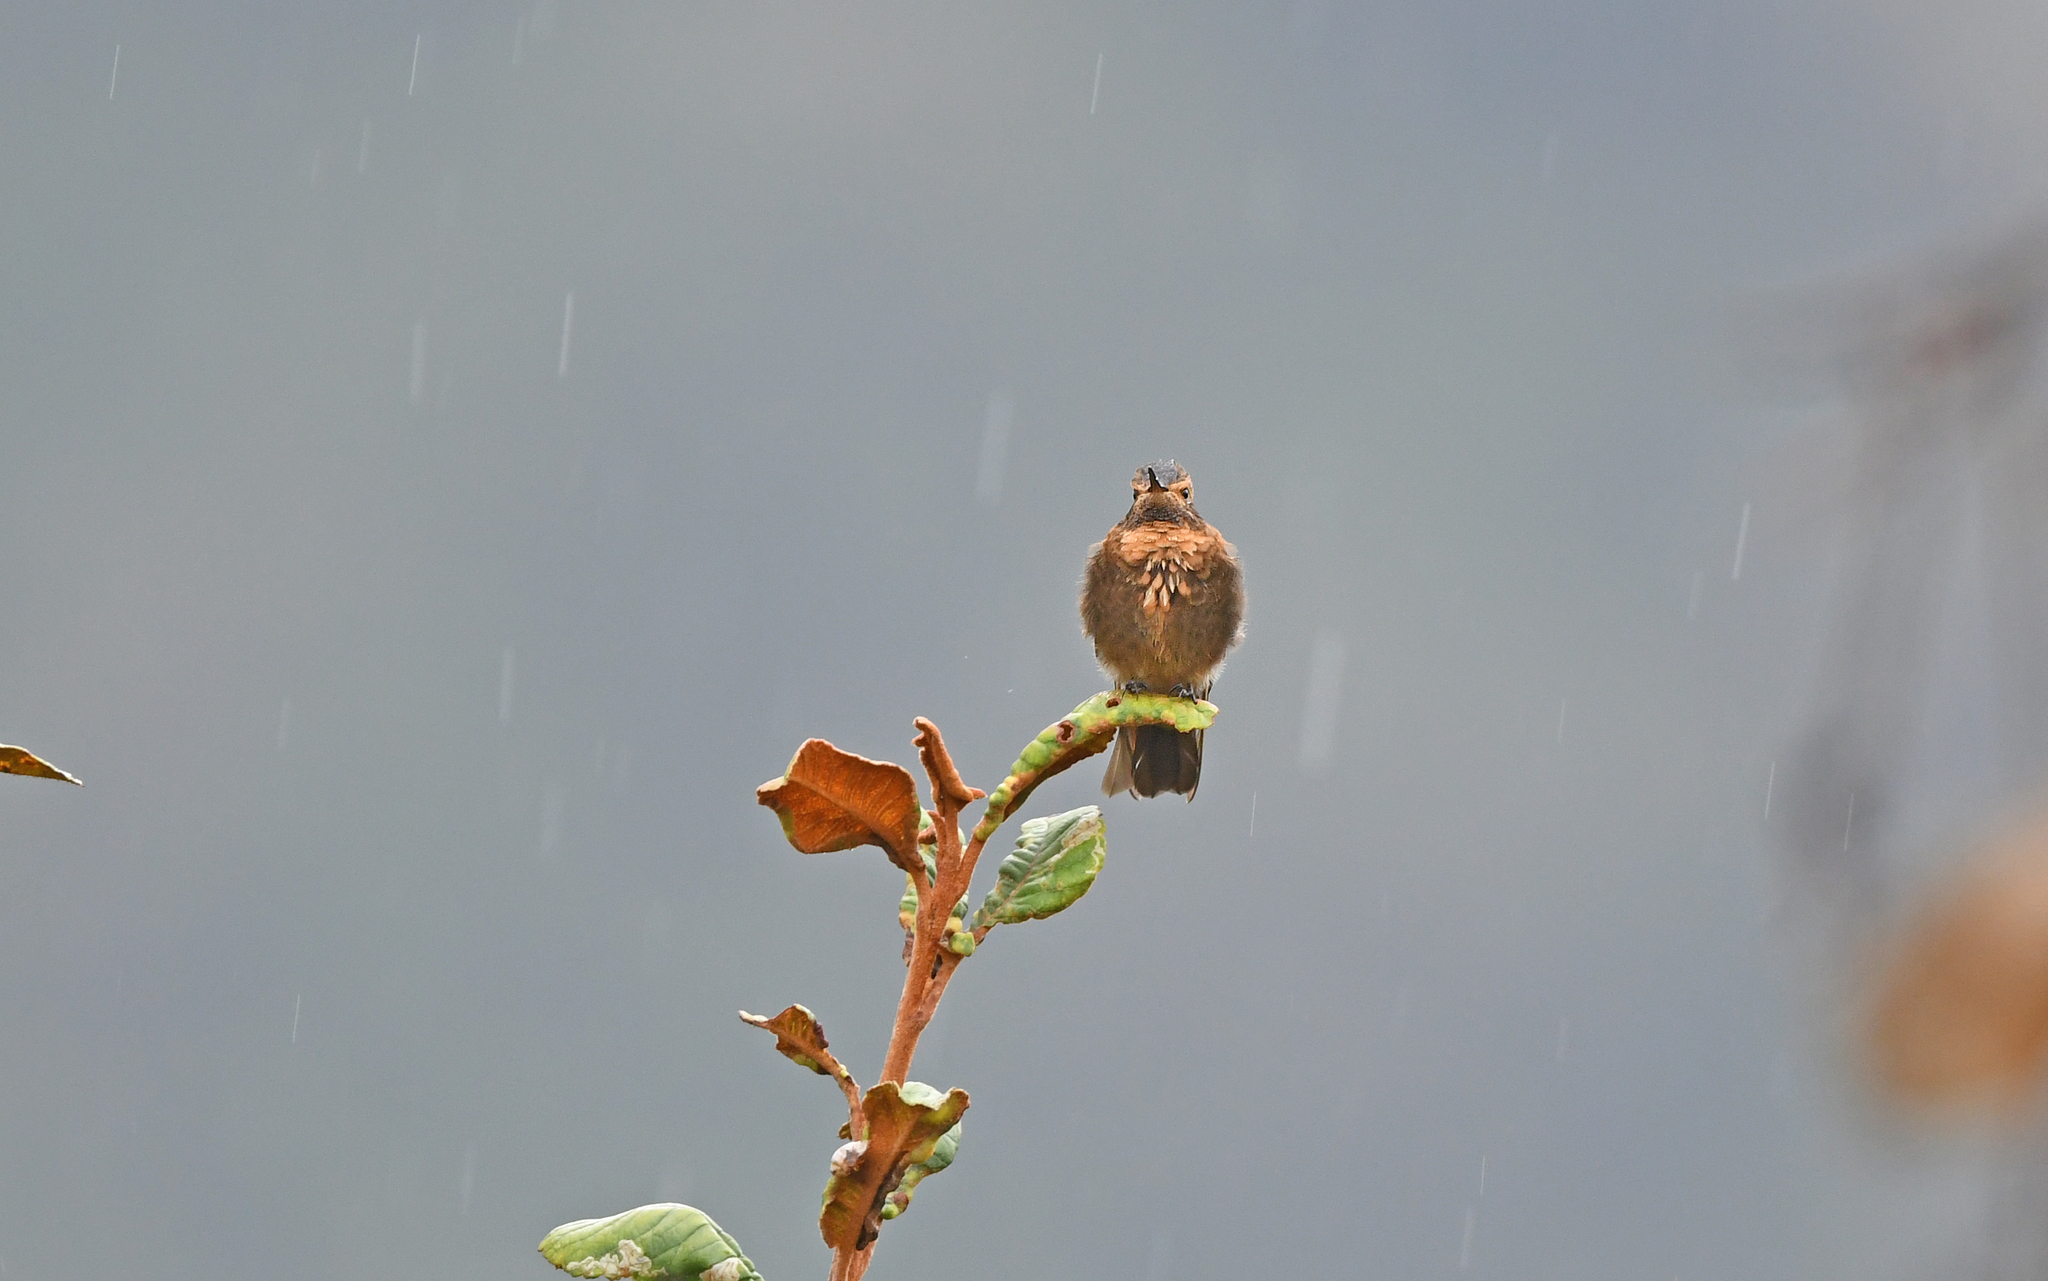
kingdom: Animalia
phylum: Chordata
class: Aves
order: Apodiformes
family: Trochilidae
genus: Aglaeactis
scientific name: Aglaeactis cupripennis
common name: Shining sunbeam
